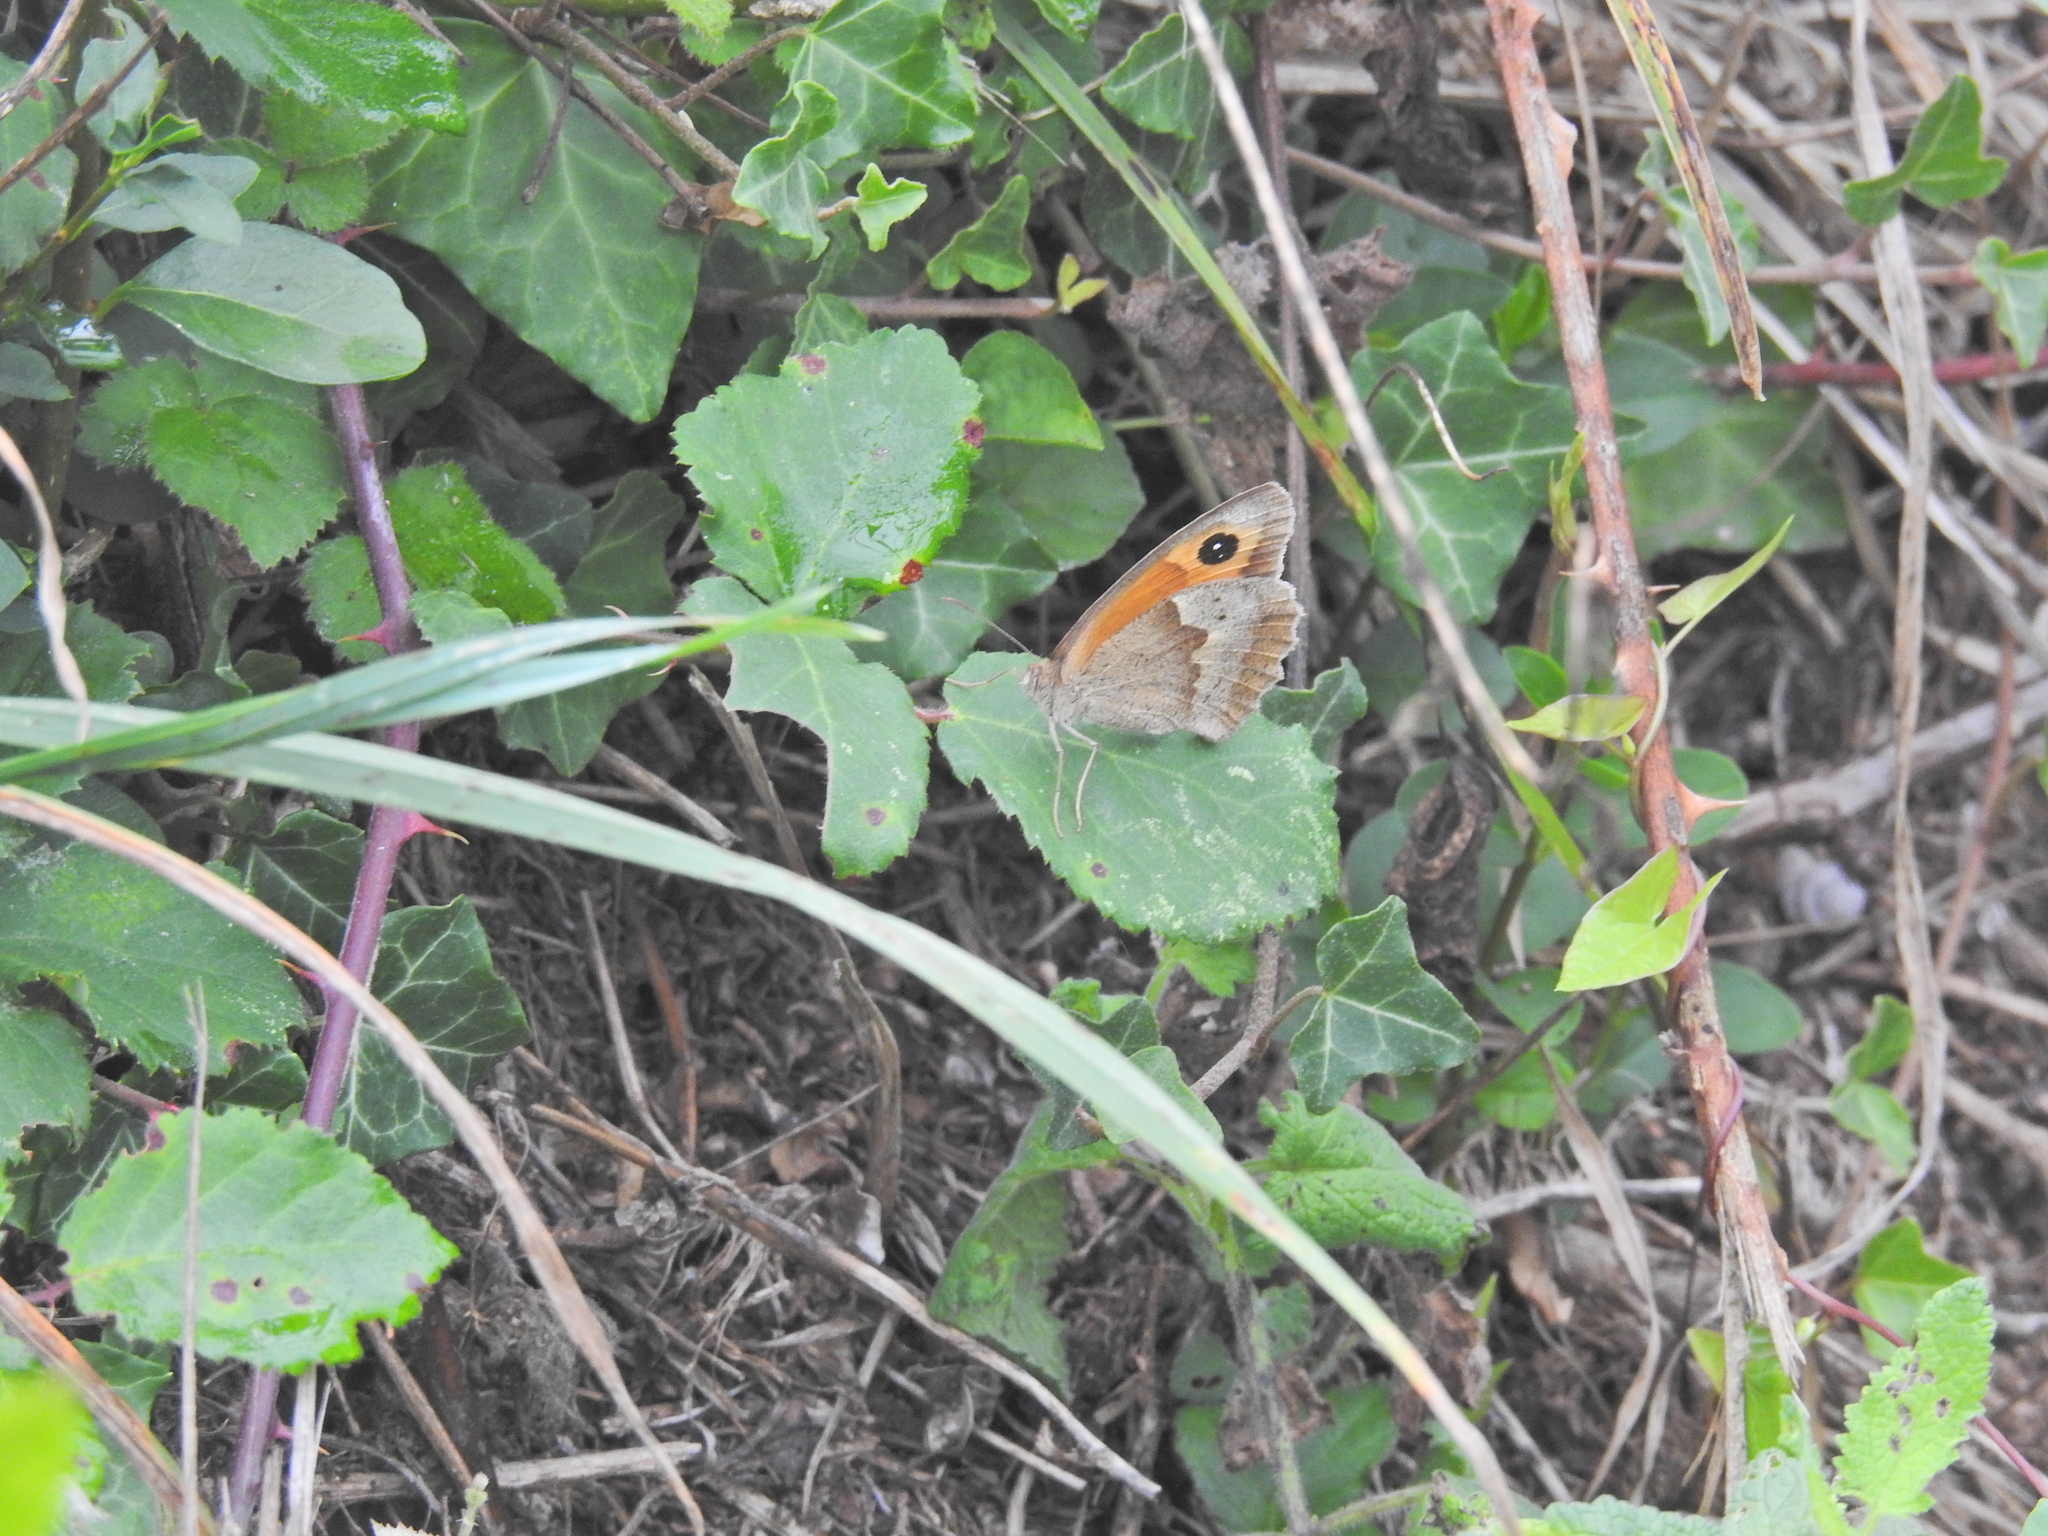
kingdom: Animalia
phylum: Arthropoda
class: Insecta
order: Lepidoptera
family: Nymphalidae
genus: Maniola
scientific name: Maniola jurtina
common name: Meadow brown
